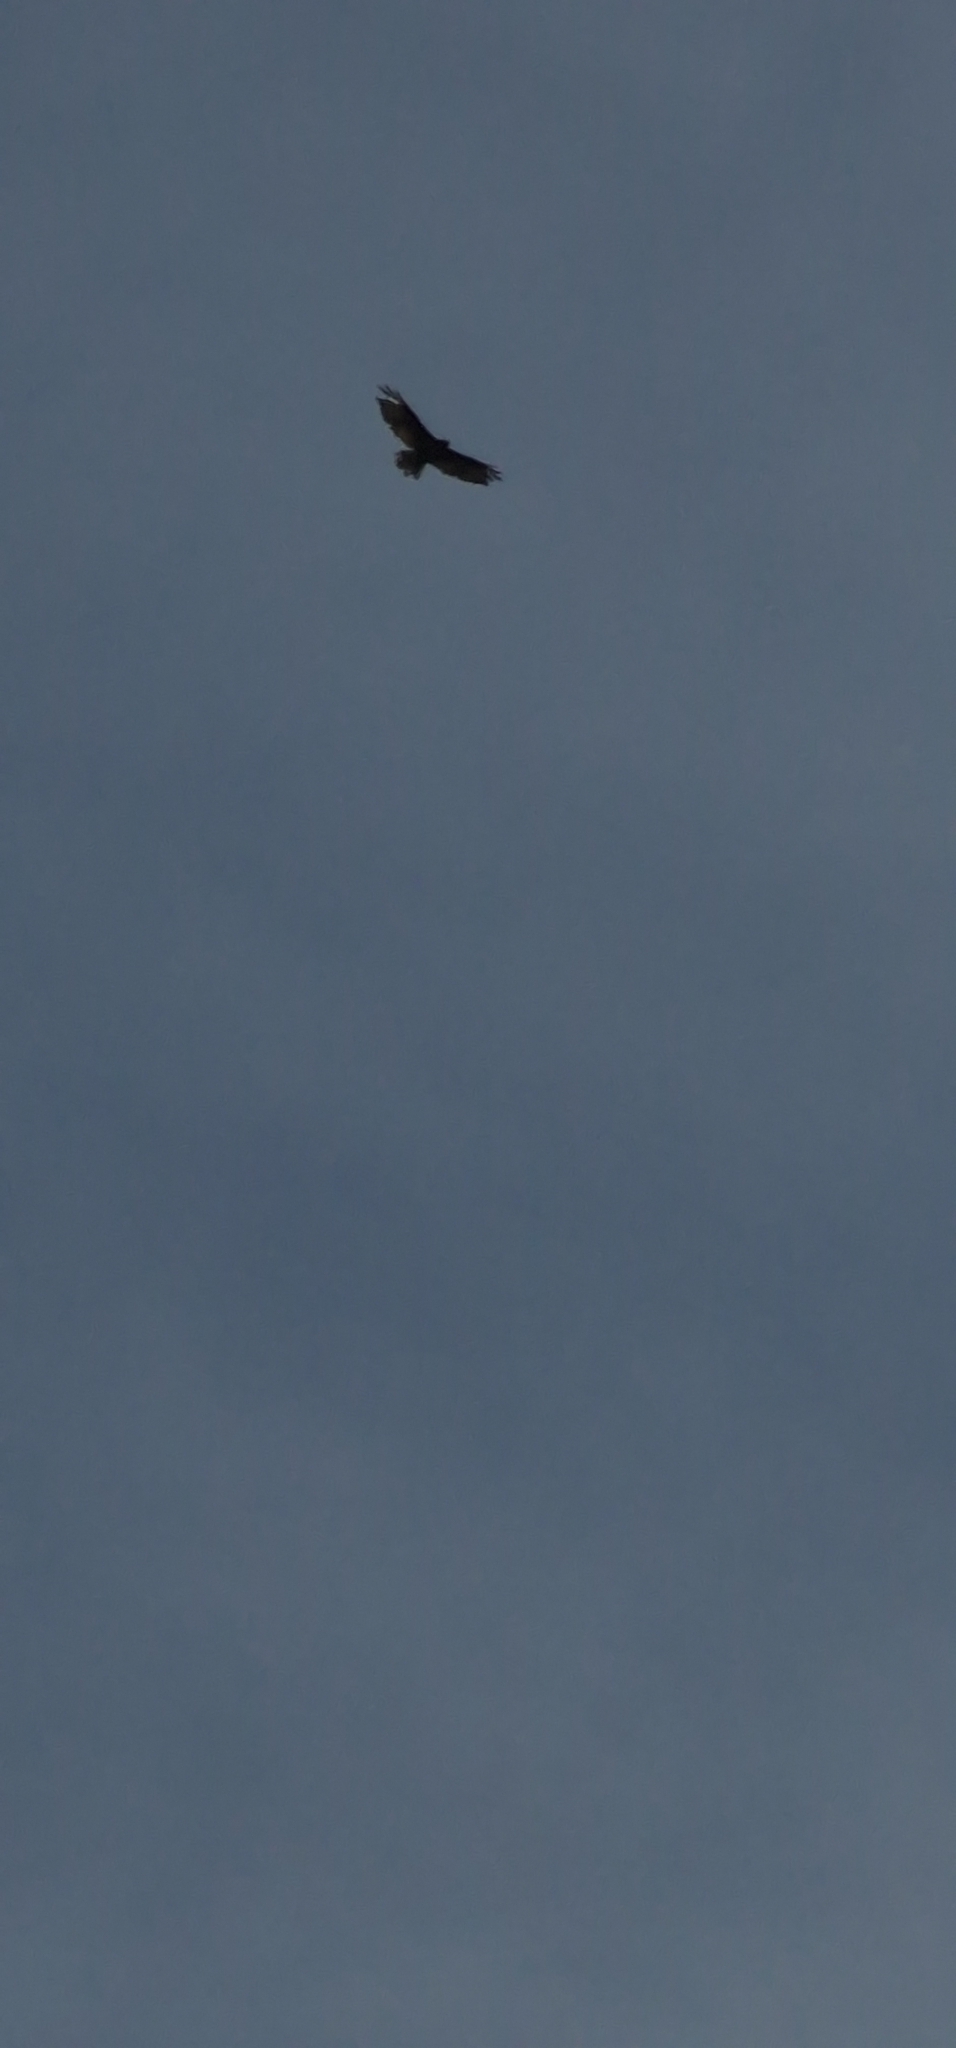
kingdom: Animalia
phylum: Chordata
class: Aves
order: Accipitriformes
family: Accipitridae
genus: Buteo
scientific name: Buteo buteo
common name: Common buzzard
